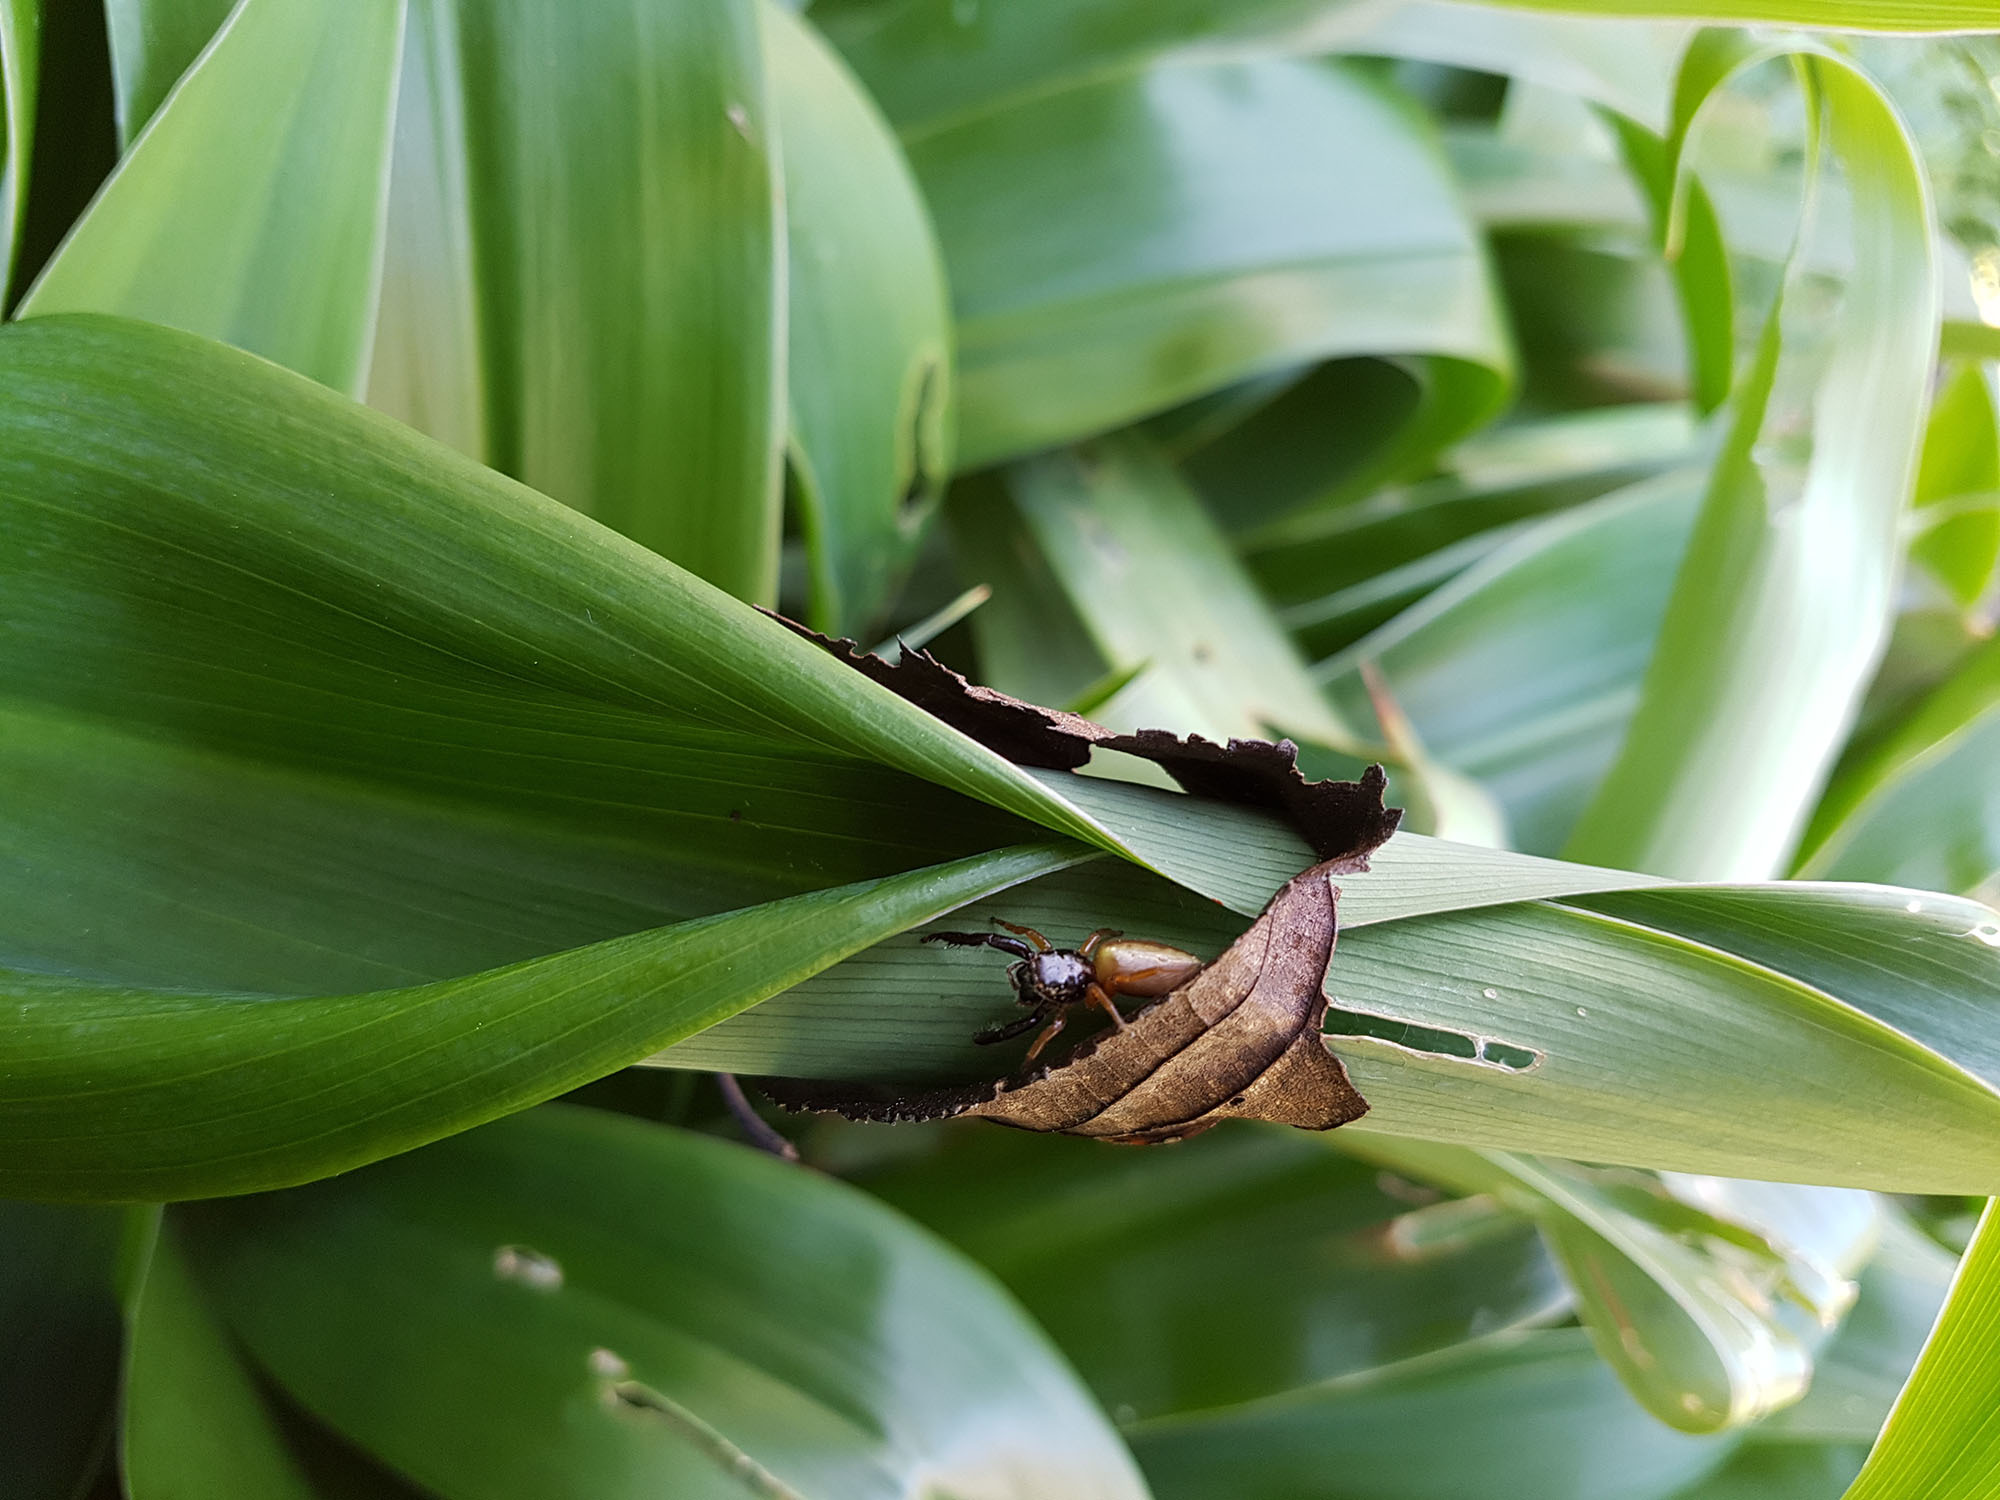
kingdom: Animalia
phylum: Arthropoda
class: Arachnida
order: Araneae
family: Salticidae
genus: Trite
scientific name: Trite planiceps
